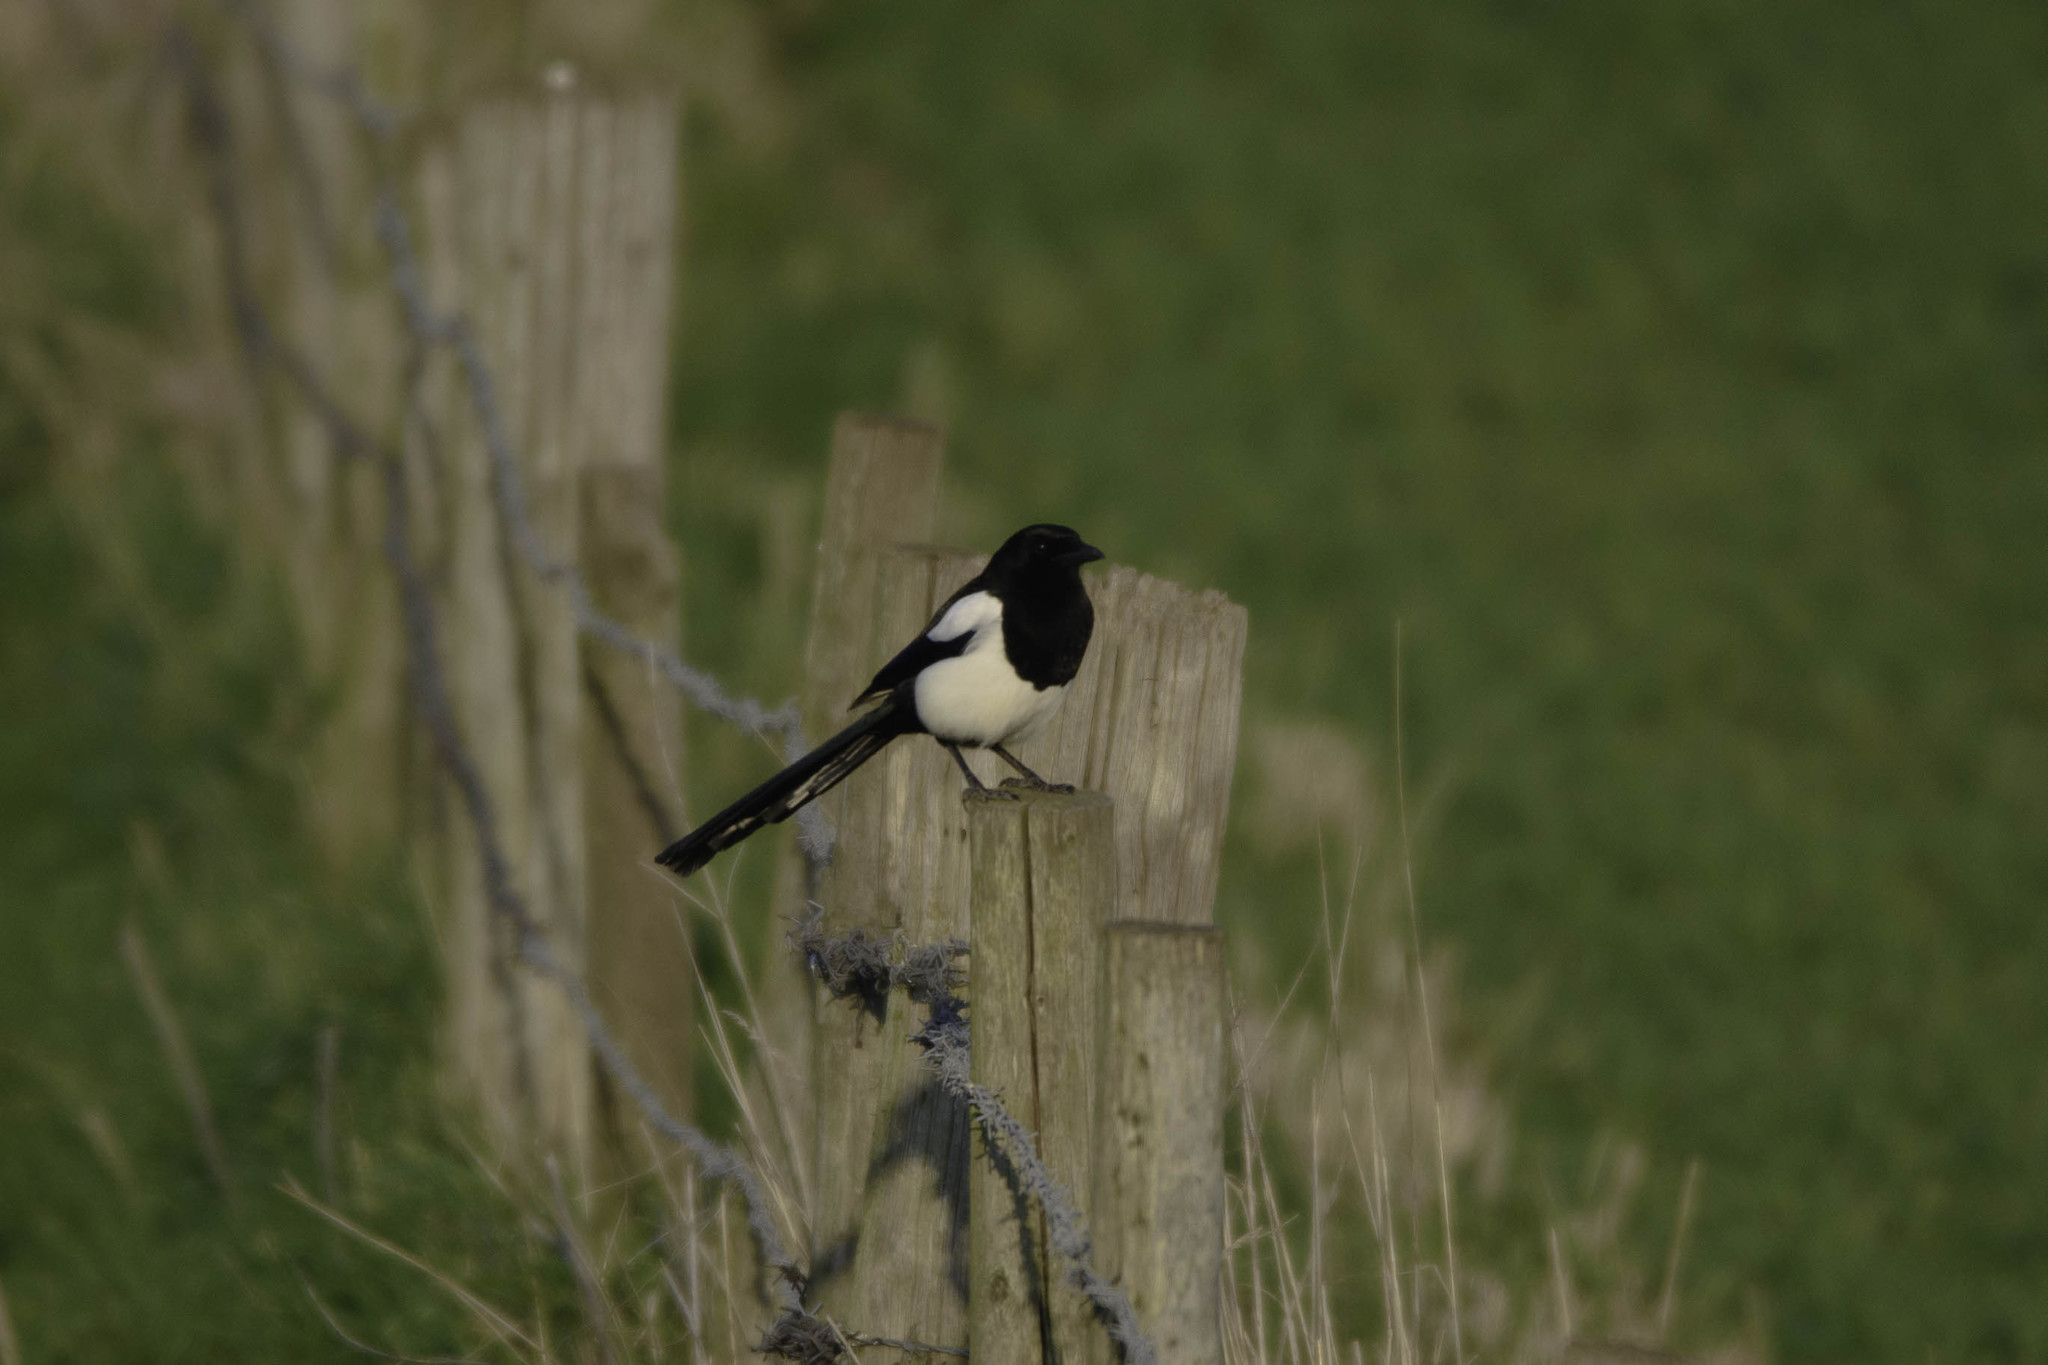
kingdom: Animalia
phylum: Chordata
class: Aves
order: Passeriformes
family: Corvidae
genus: Pica
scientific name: Pica pica
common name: Eurasian magpie
